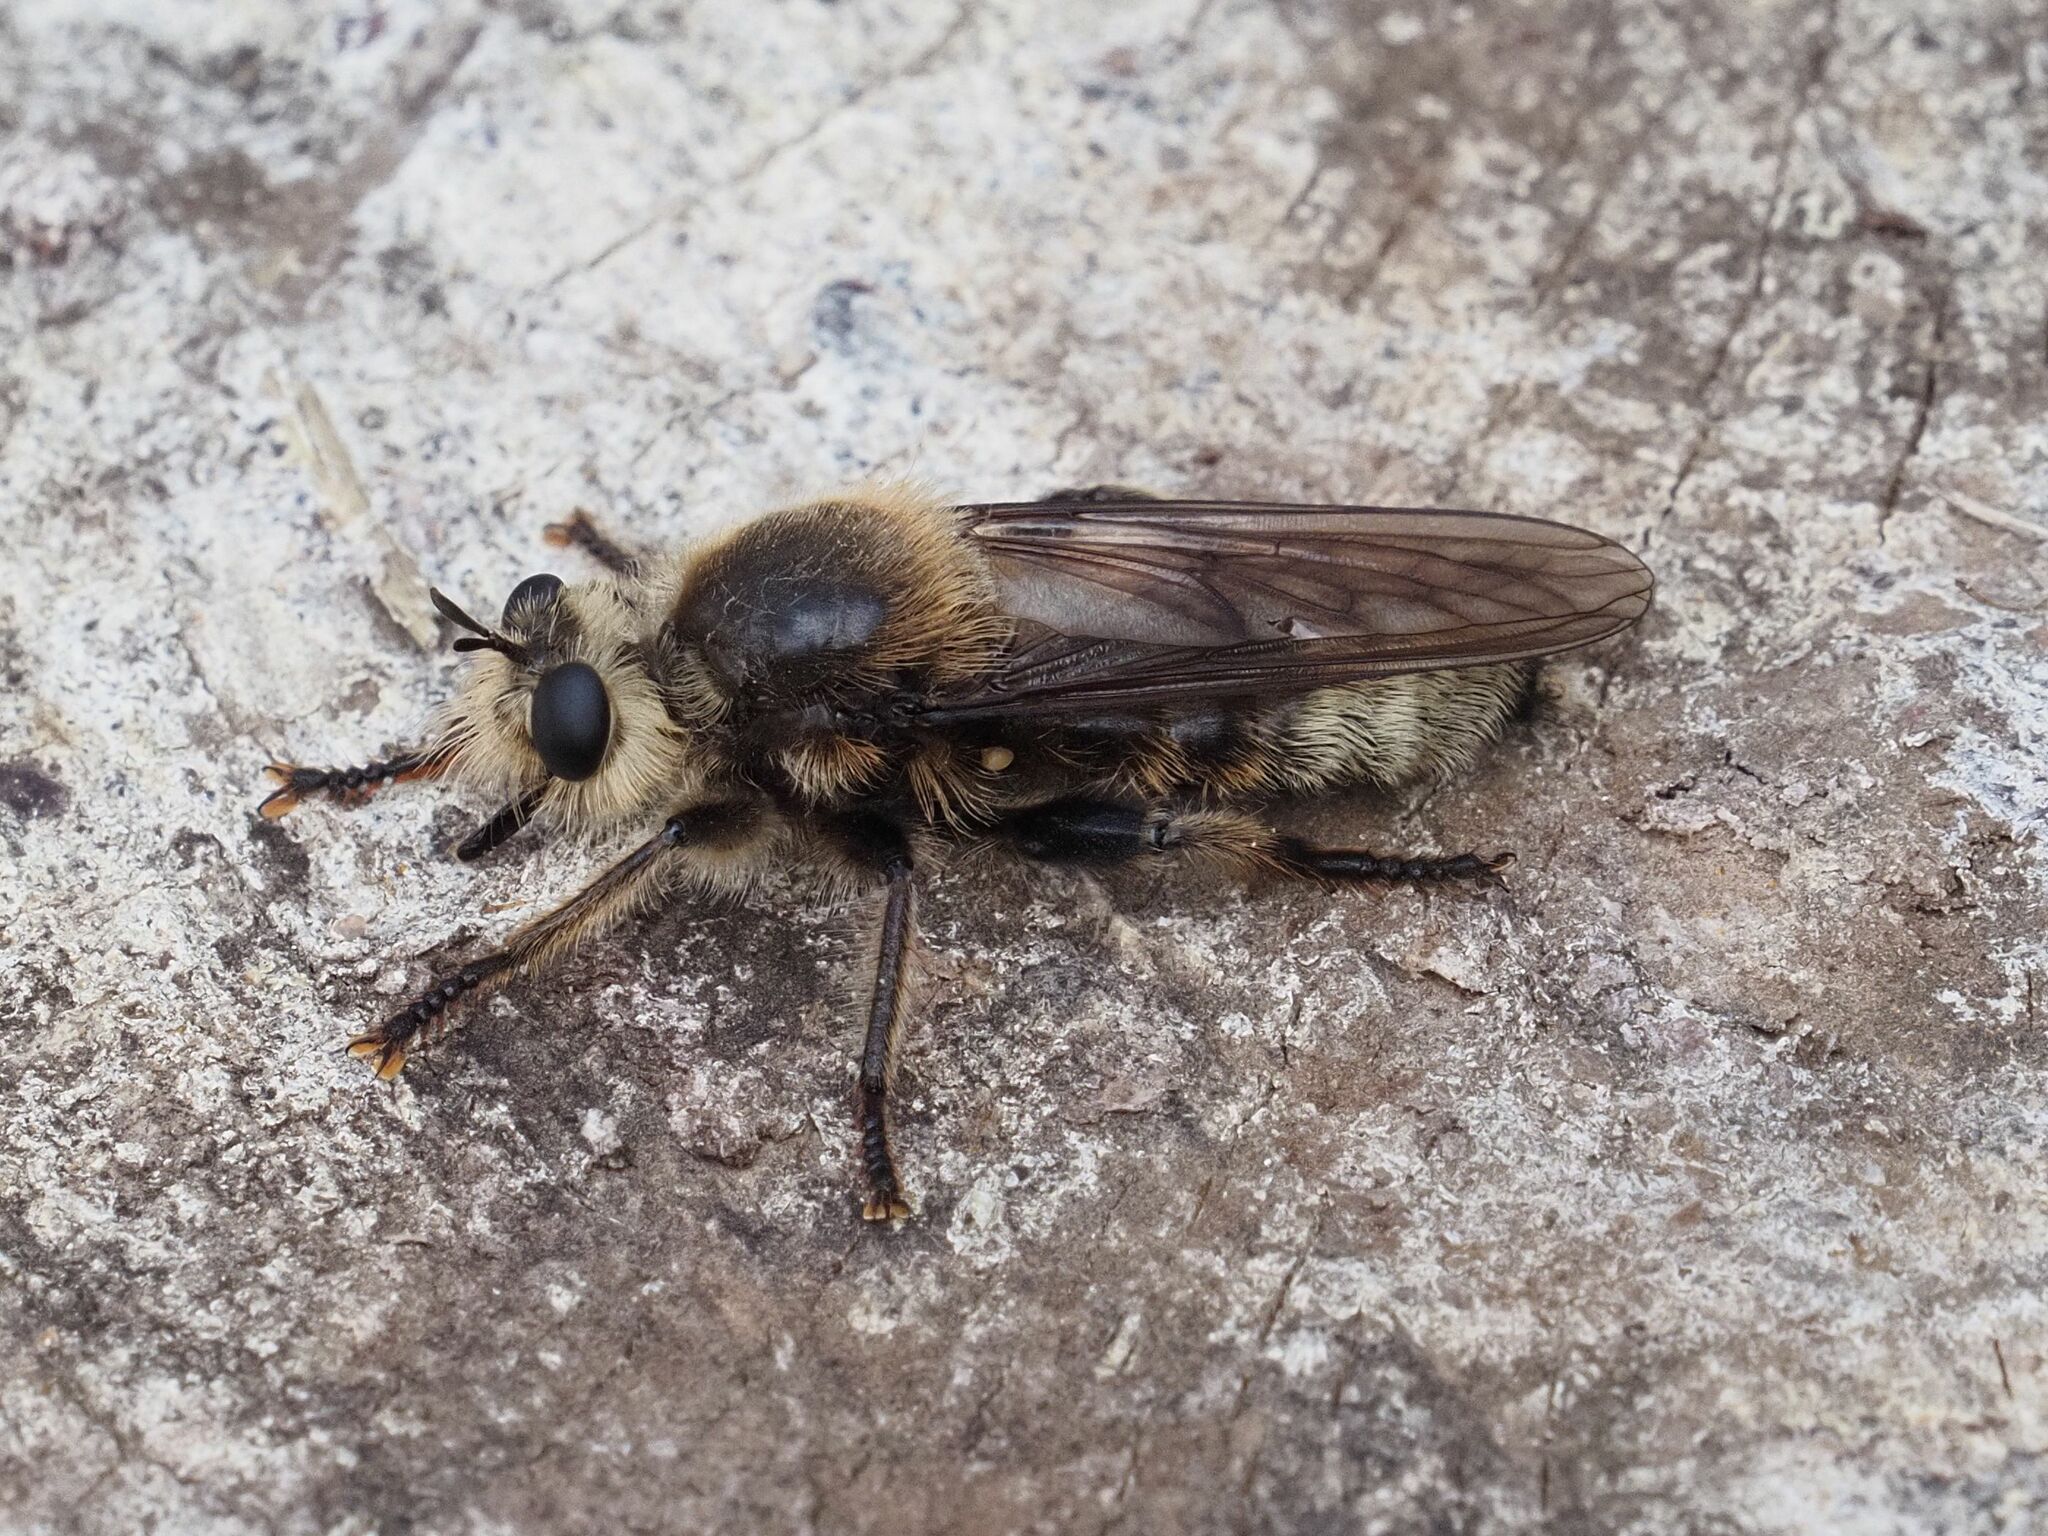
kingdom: Animalia
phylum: Arthropoda
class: Insecta
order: Diptera
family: Asilidae
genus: Laphria
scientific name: Laphria gibbosa
